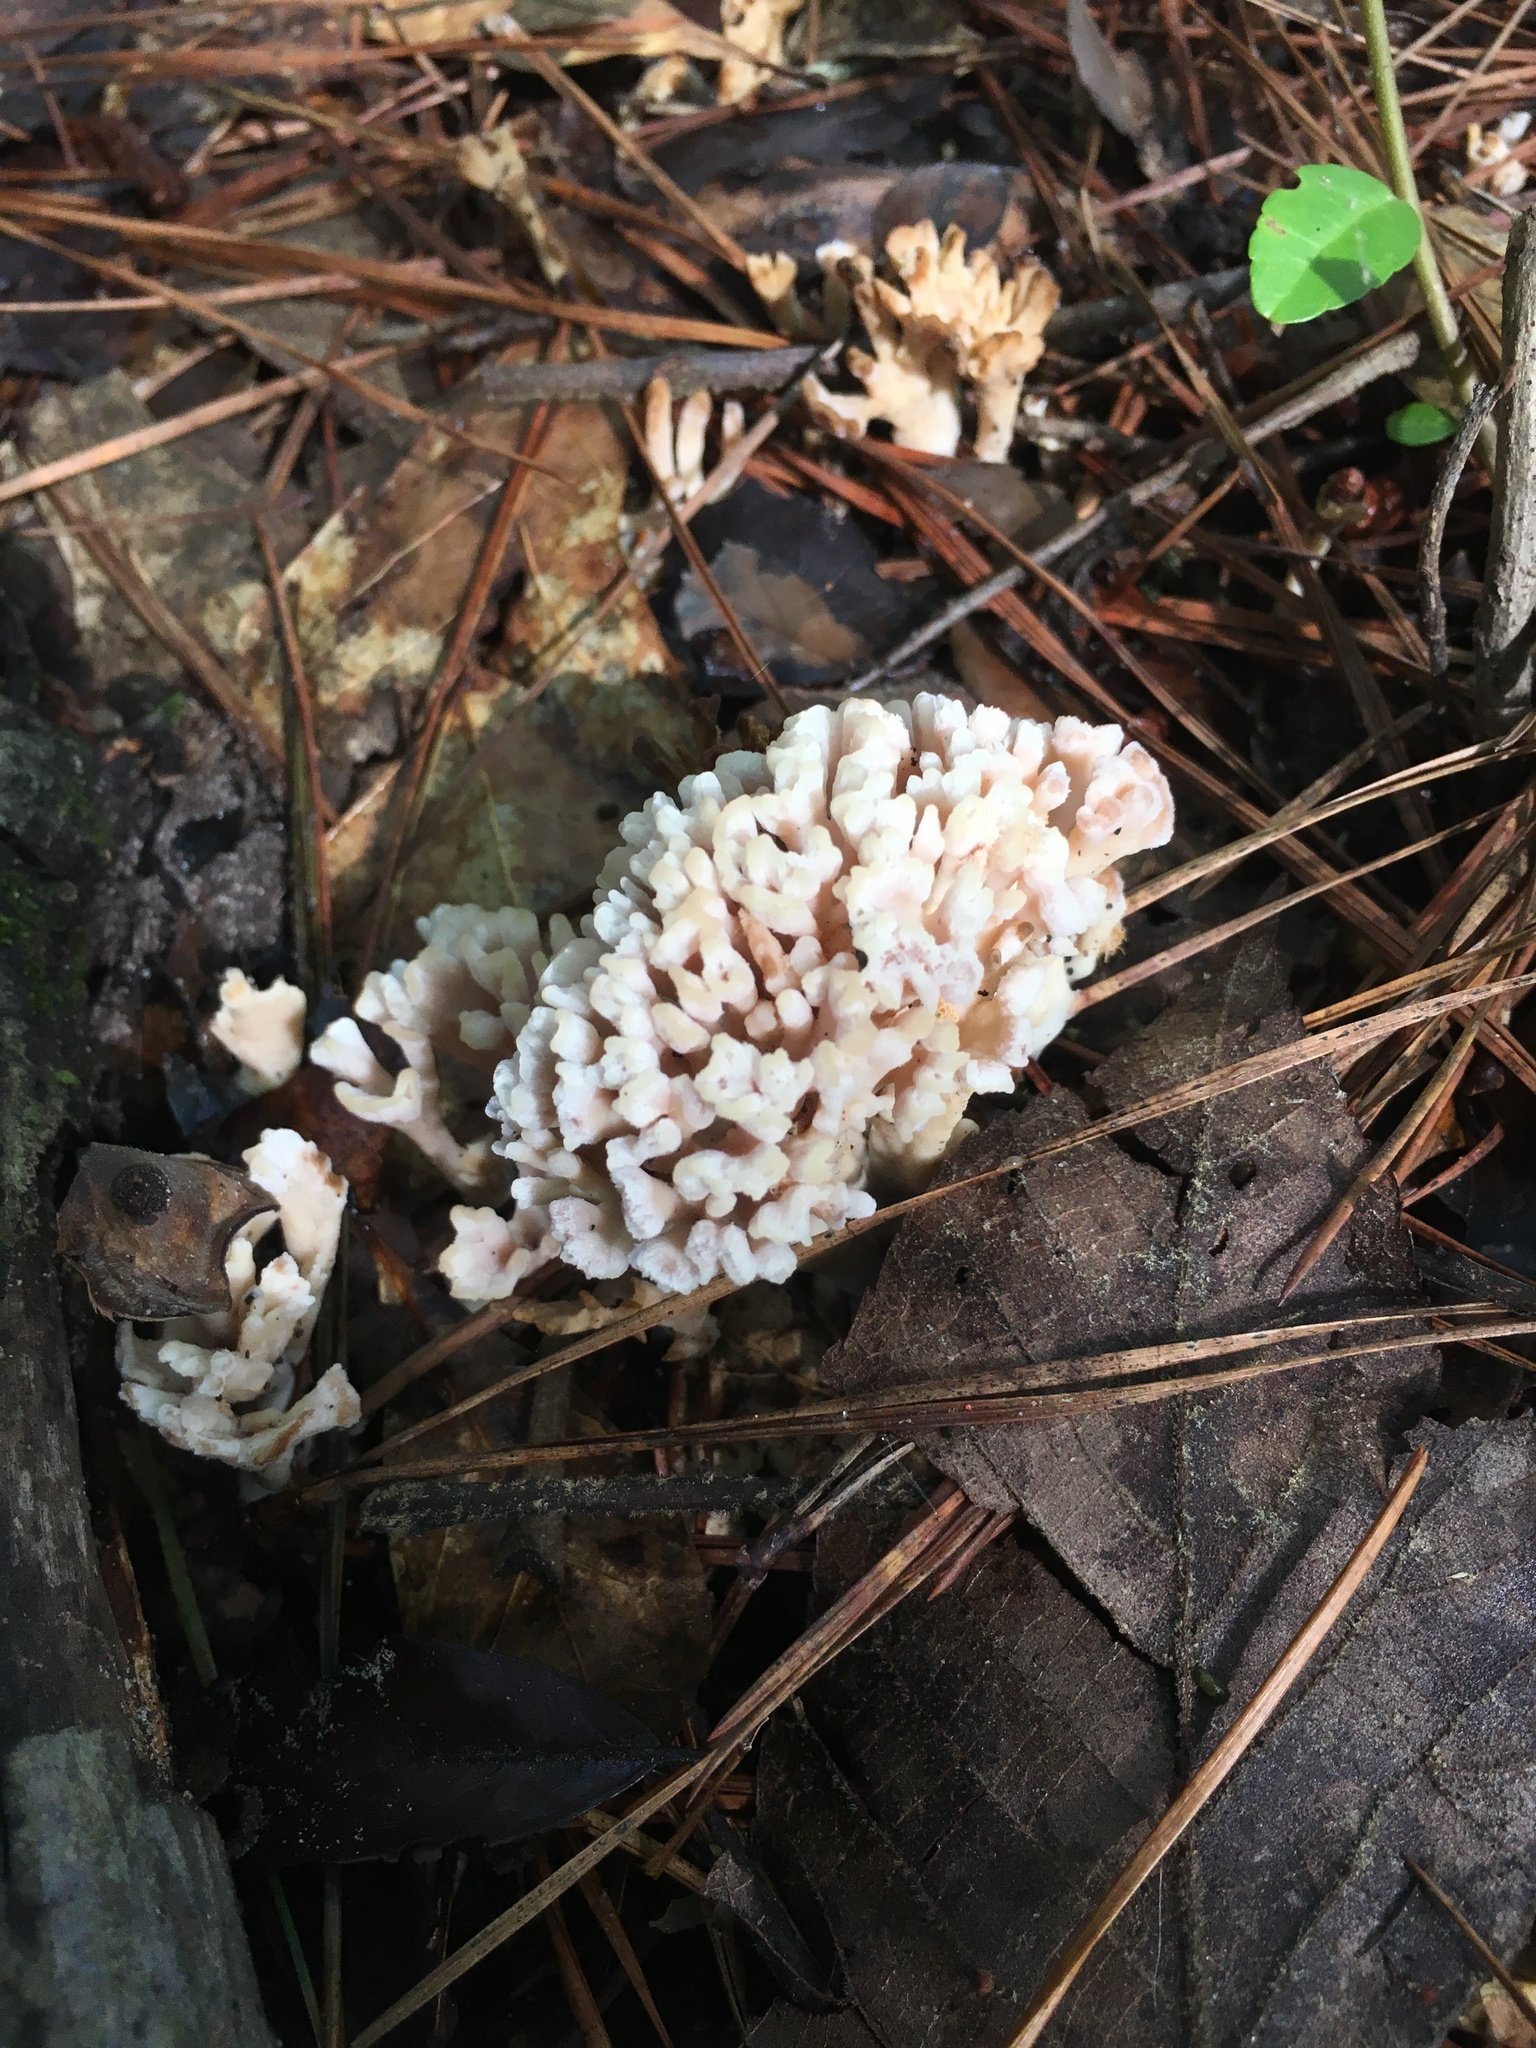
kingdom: Fungi
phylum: Basidiomycota
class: Agaricomycetes
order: Sebacinales
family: Sebacinaceae
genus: Sebacina
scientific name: Sebacina schweinitzii
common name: Jellied false coral fungus
